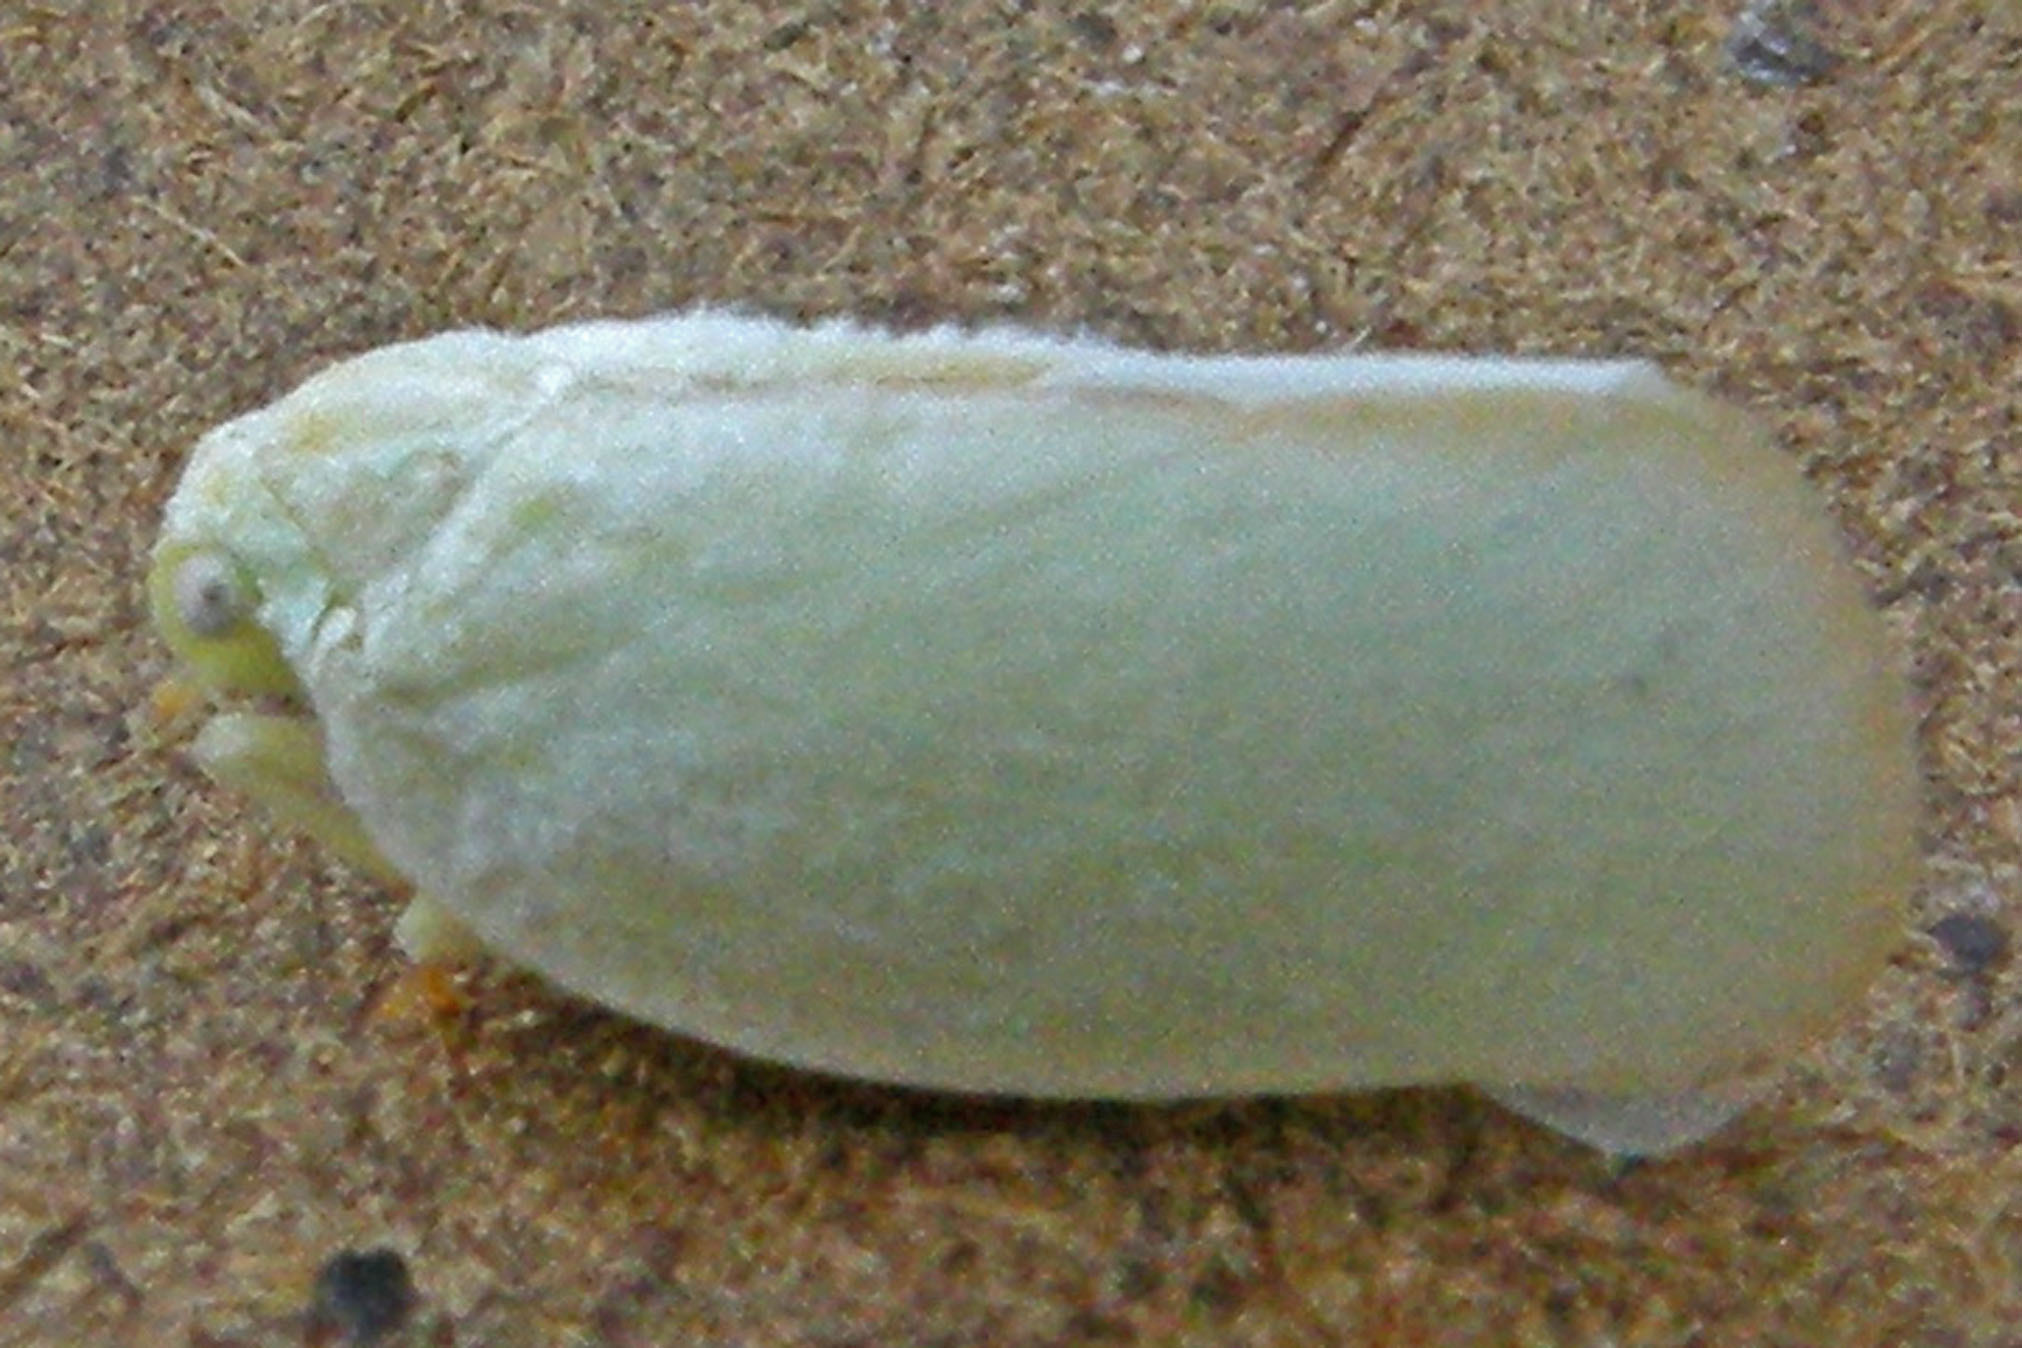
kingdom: Animalia
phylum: Arthropoda
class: Insecta
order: Hemiptera
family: Flatidae
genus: Ormenoides
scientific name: Ormenoides venusta
